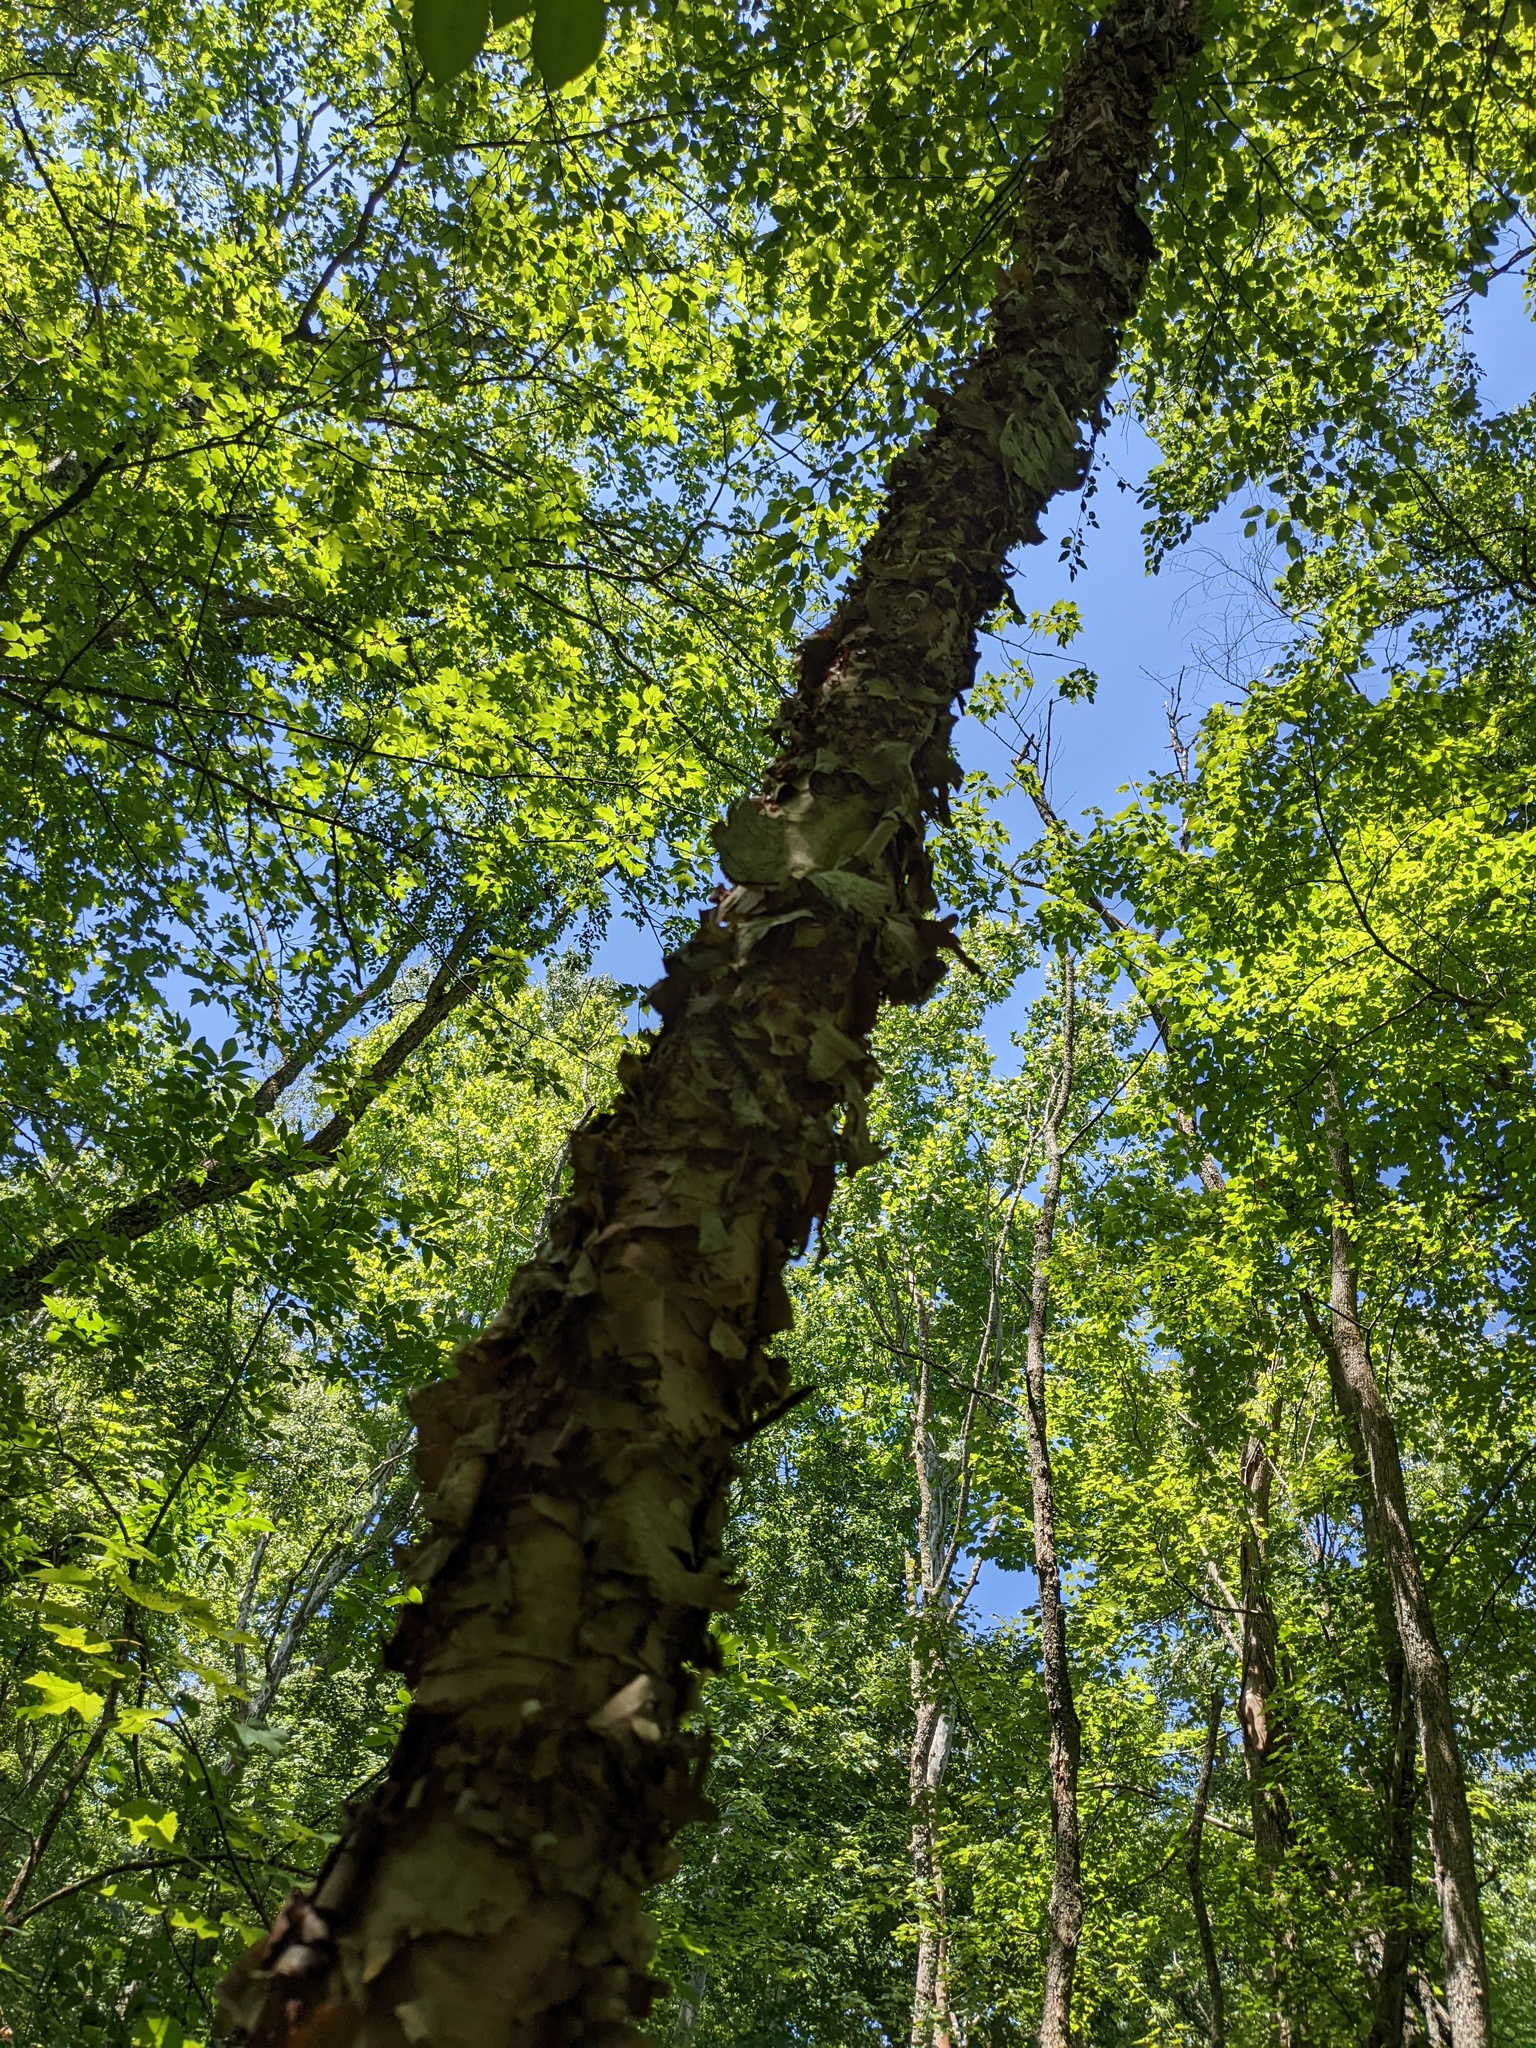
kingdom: Plantae
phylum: Tracheophyta
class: Magnoliopsida
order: Fagales
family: Betulaceae
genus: Betula
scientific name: Betula nigra
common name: Black birch
